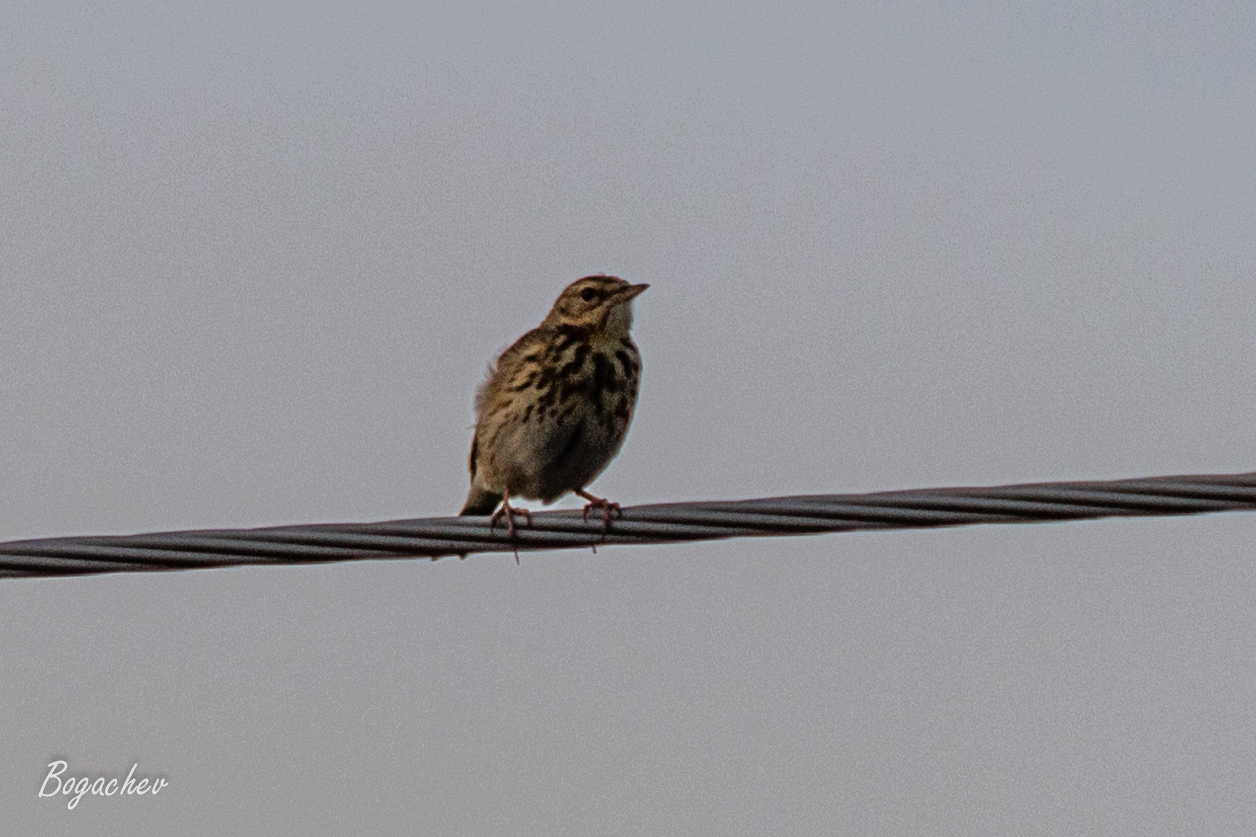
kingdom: Animalia
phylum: Chordata
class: Aves
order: Passeriformes
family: Motacillidae
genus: Anthus
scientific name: Anthus trivialis
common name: Tree pipit
